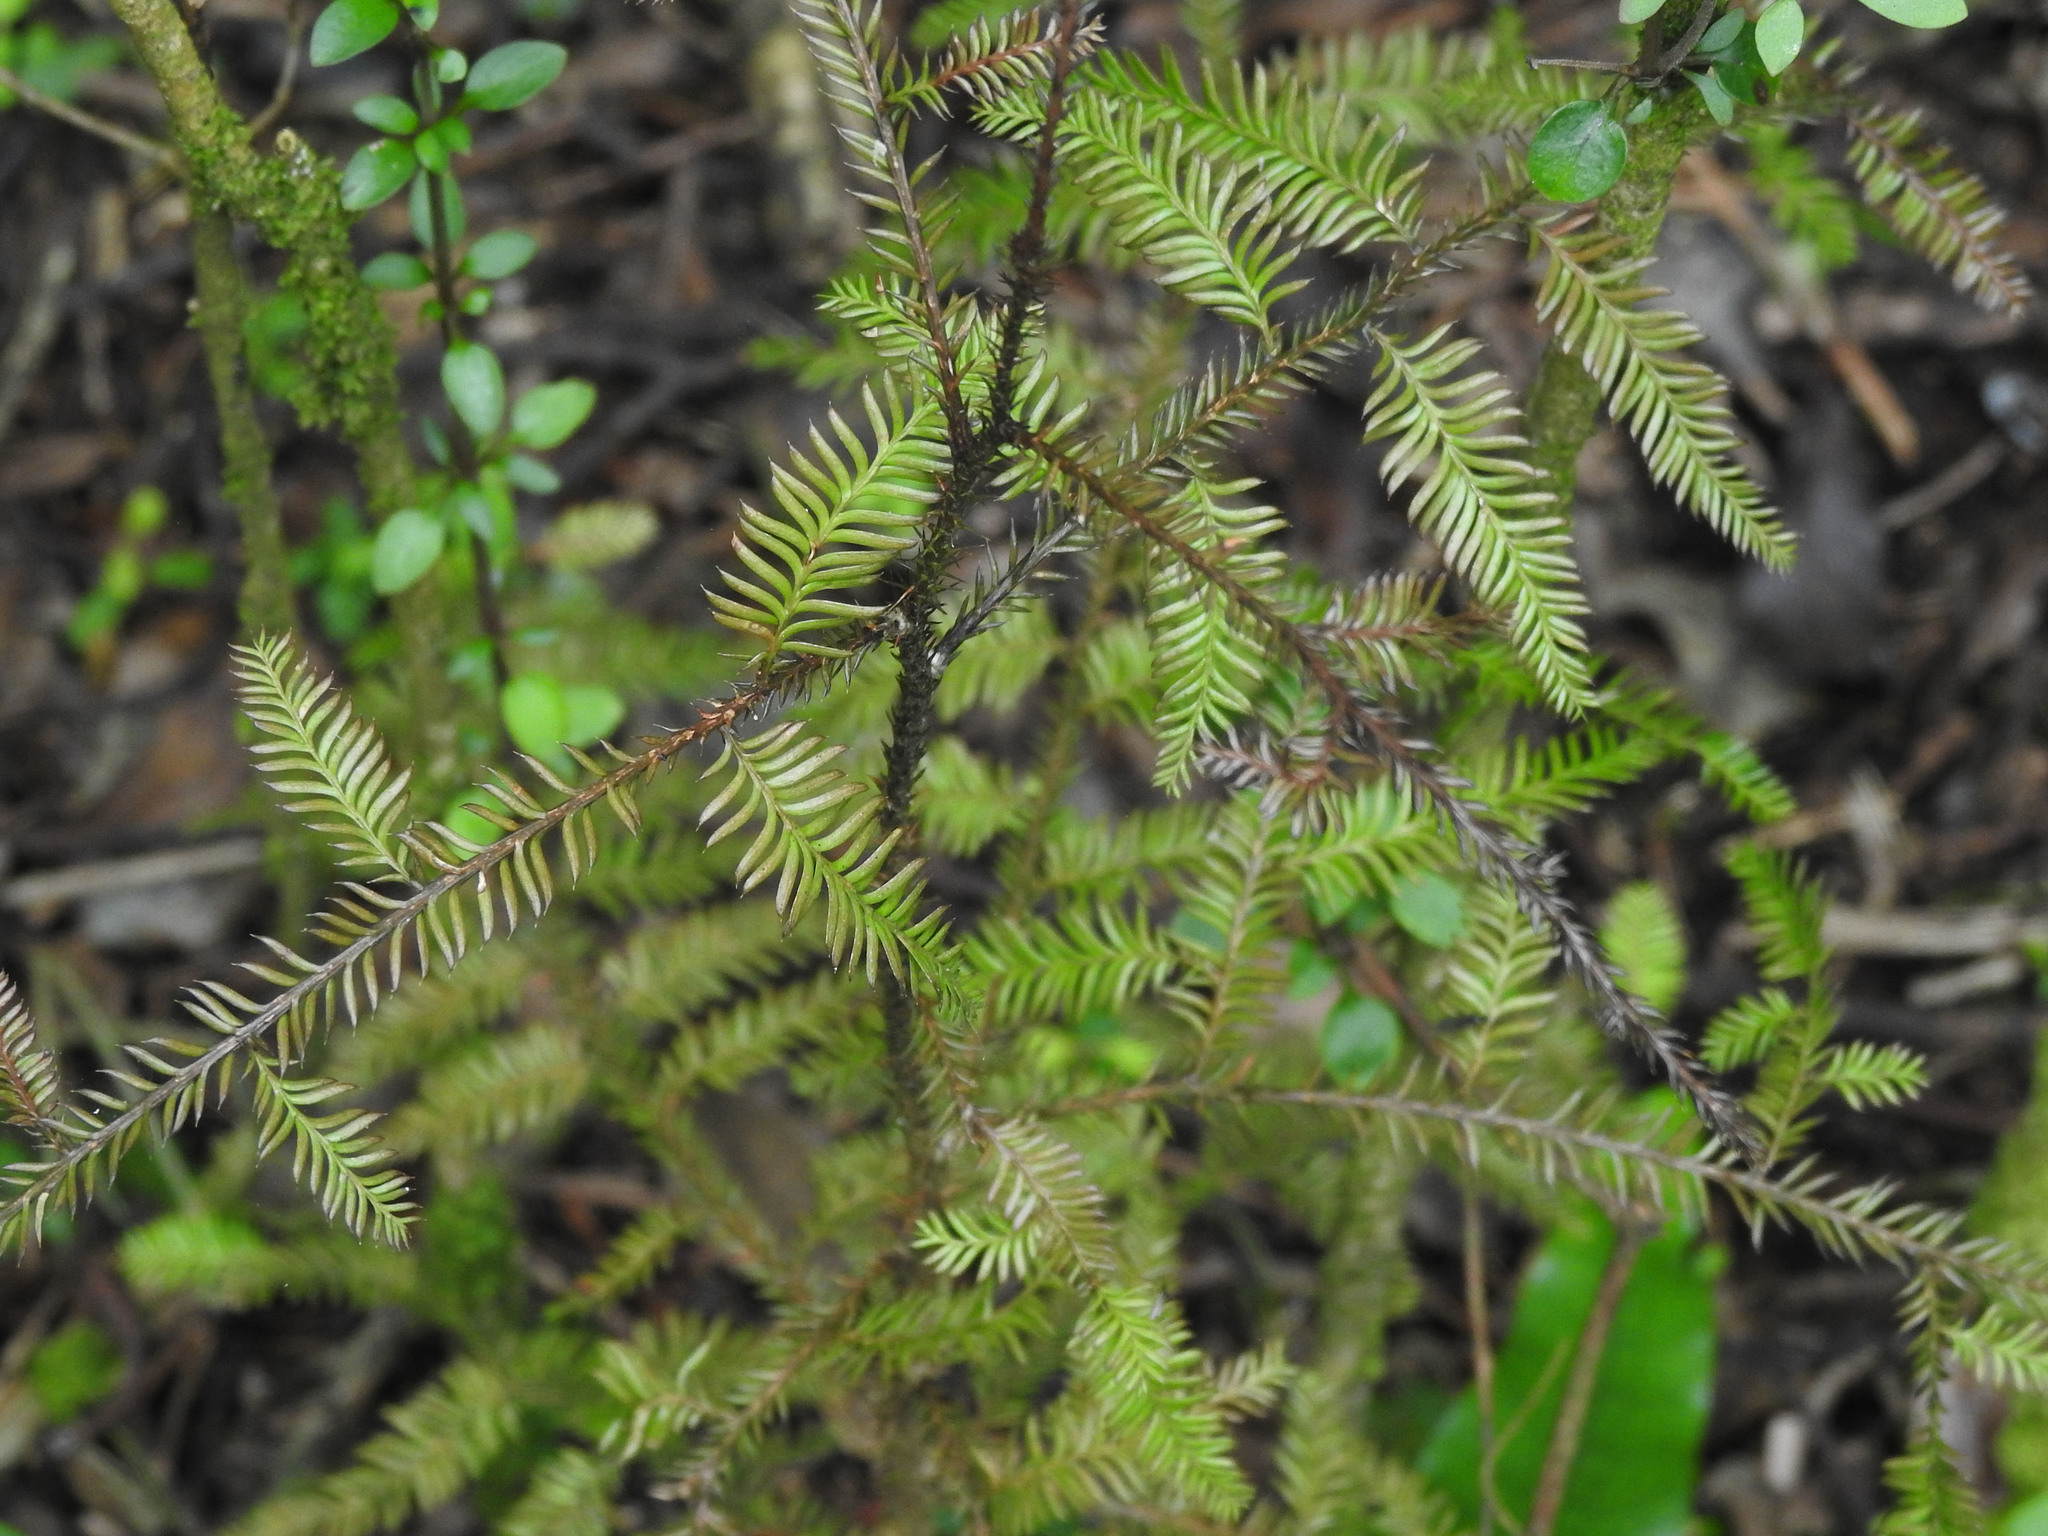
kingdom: Plantae
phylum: Tracheophyta
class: Pinopsida
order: Pinales
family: Podocarpaceae
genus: Dacrycarpus
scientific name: Dacrycarpus dacrydioides
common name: White pine
